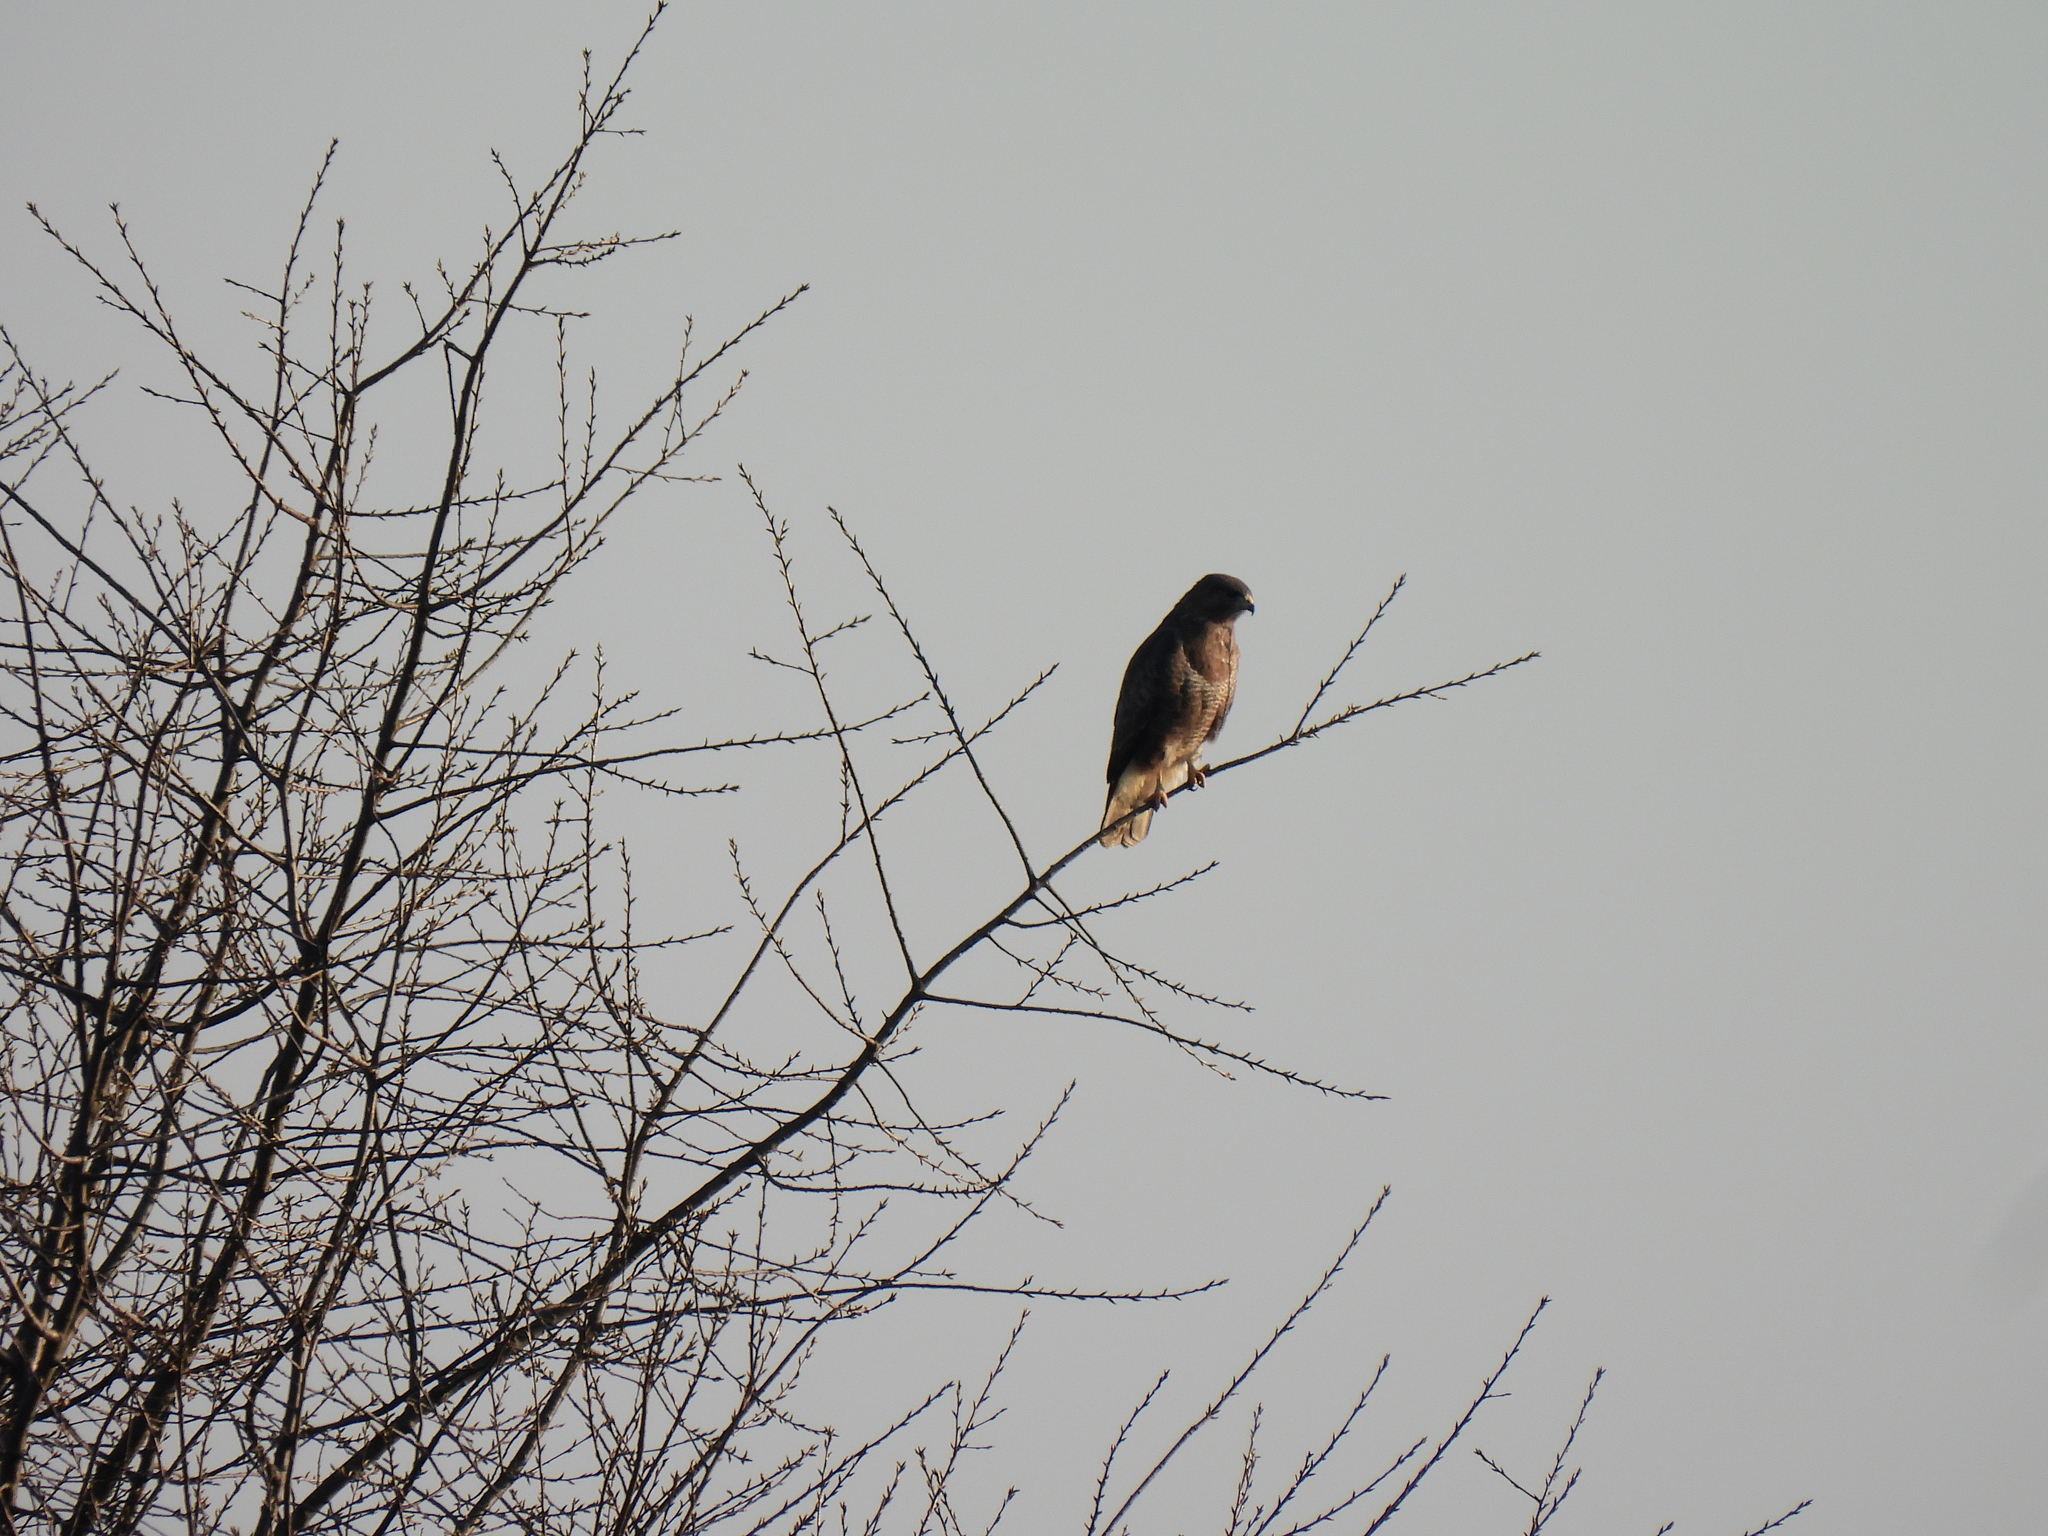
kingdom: Animalia
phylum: Chordata
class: Aves
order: Accipitriformes
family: Accipitridae
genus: Buteo
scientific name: Buteo buteo
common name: Common buzzard
